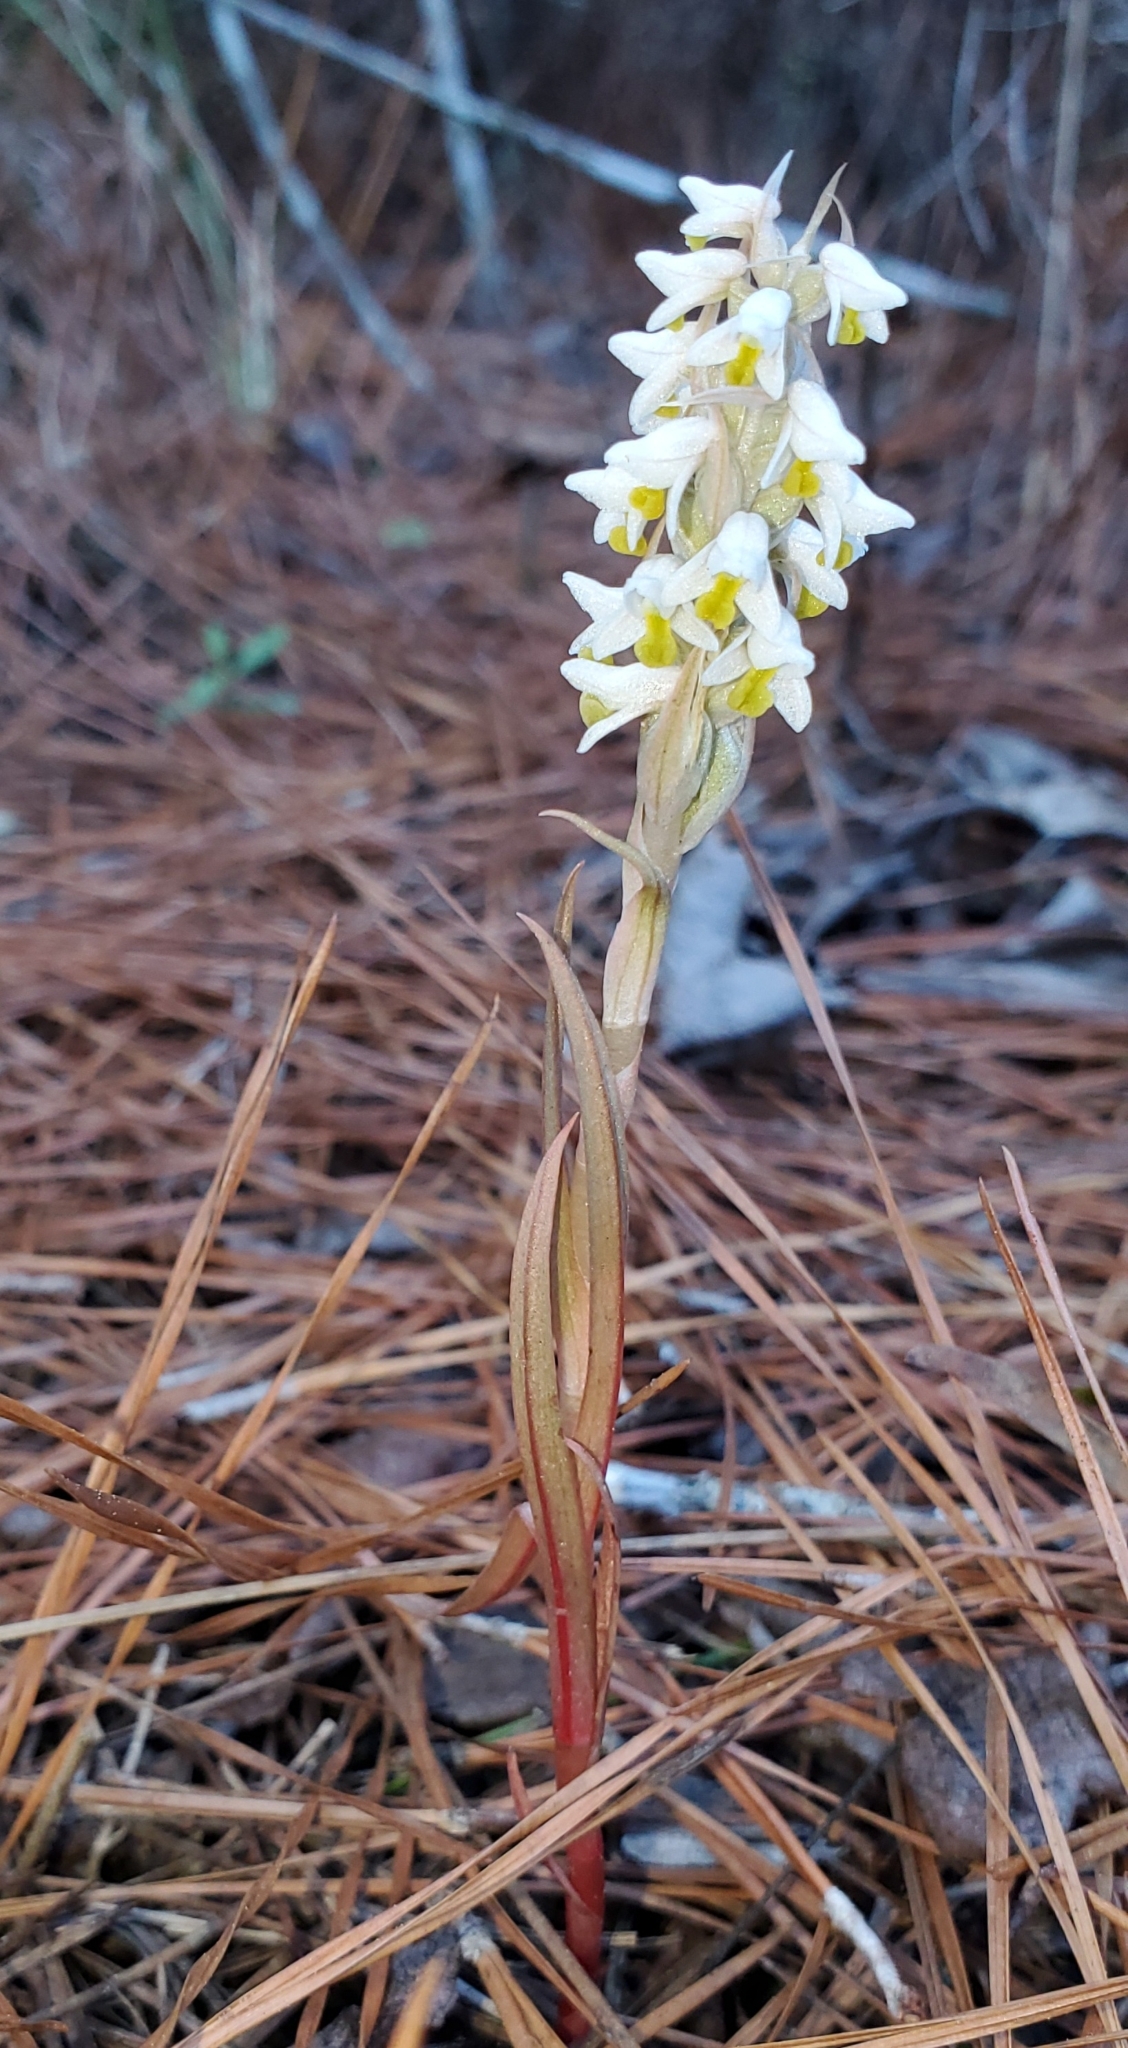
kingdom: Plantae
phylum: Tracheophyta
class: Liliopsida
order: Asparagales
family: Orchidaceae
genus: Zeuxine
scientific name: Zeuxine strateumatica
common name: Soldier's orchid
